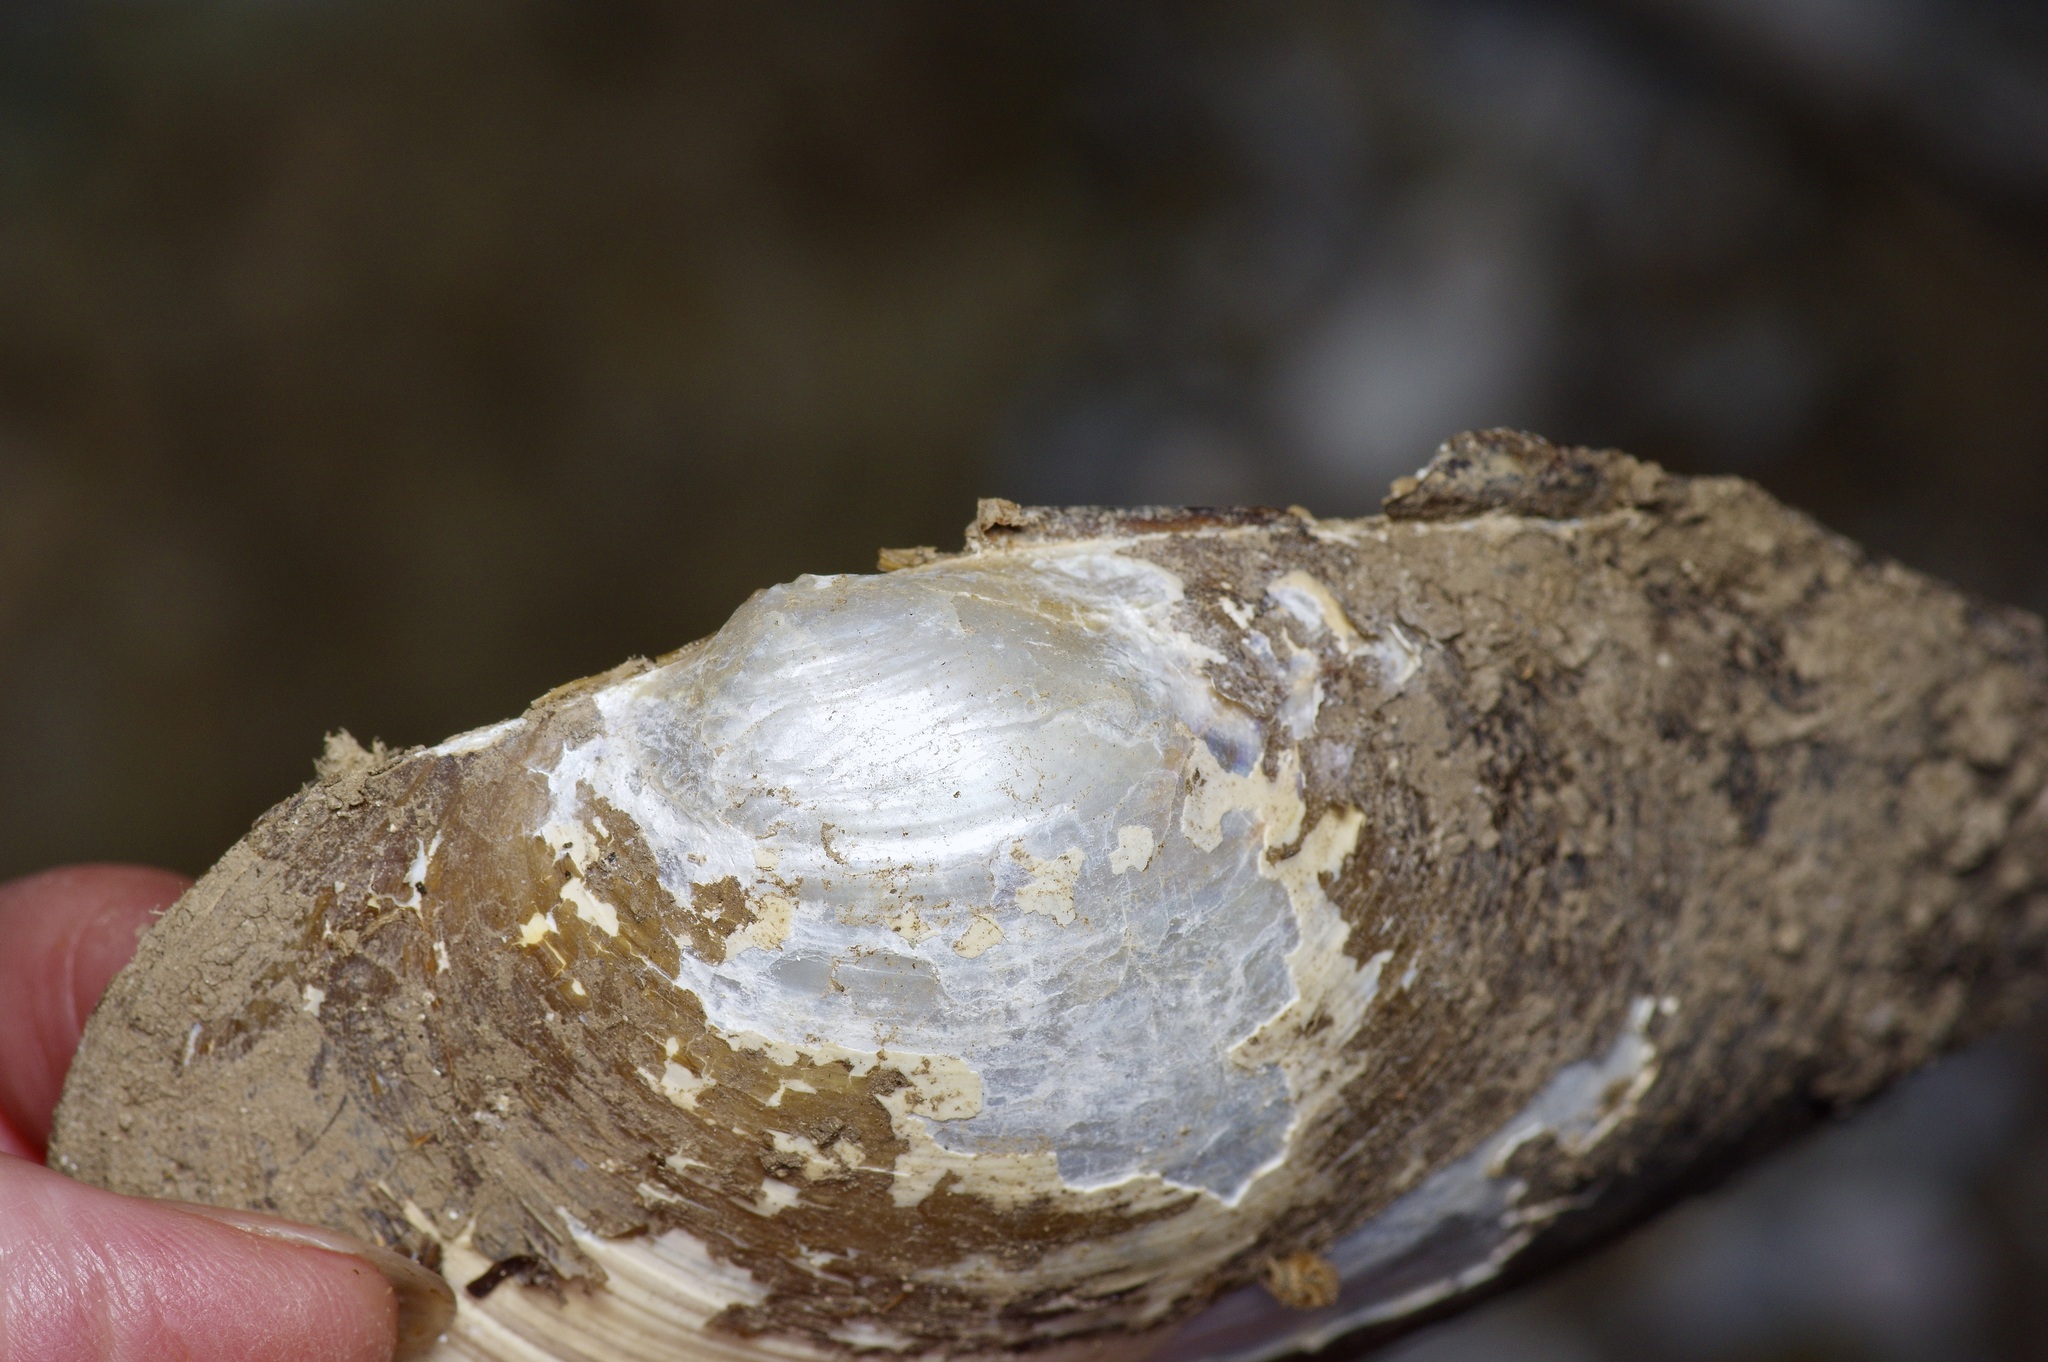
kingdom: Animalia
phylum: Mollusca
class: Bivalvia
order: Unionida
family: Unionidae
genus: Pyganodon
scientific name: Pyganodon grandis
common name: Giant floater
